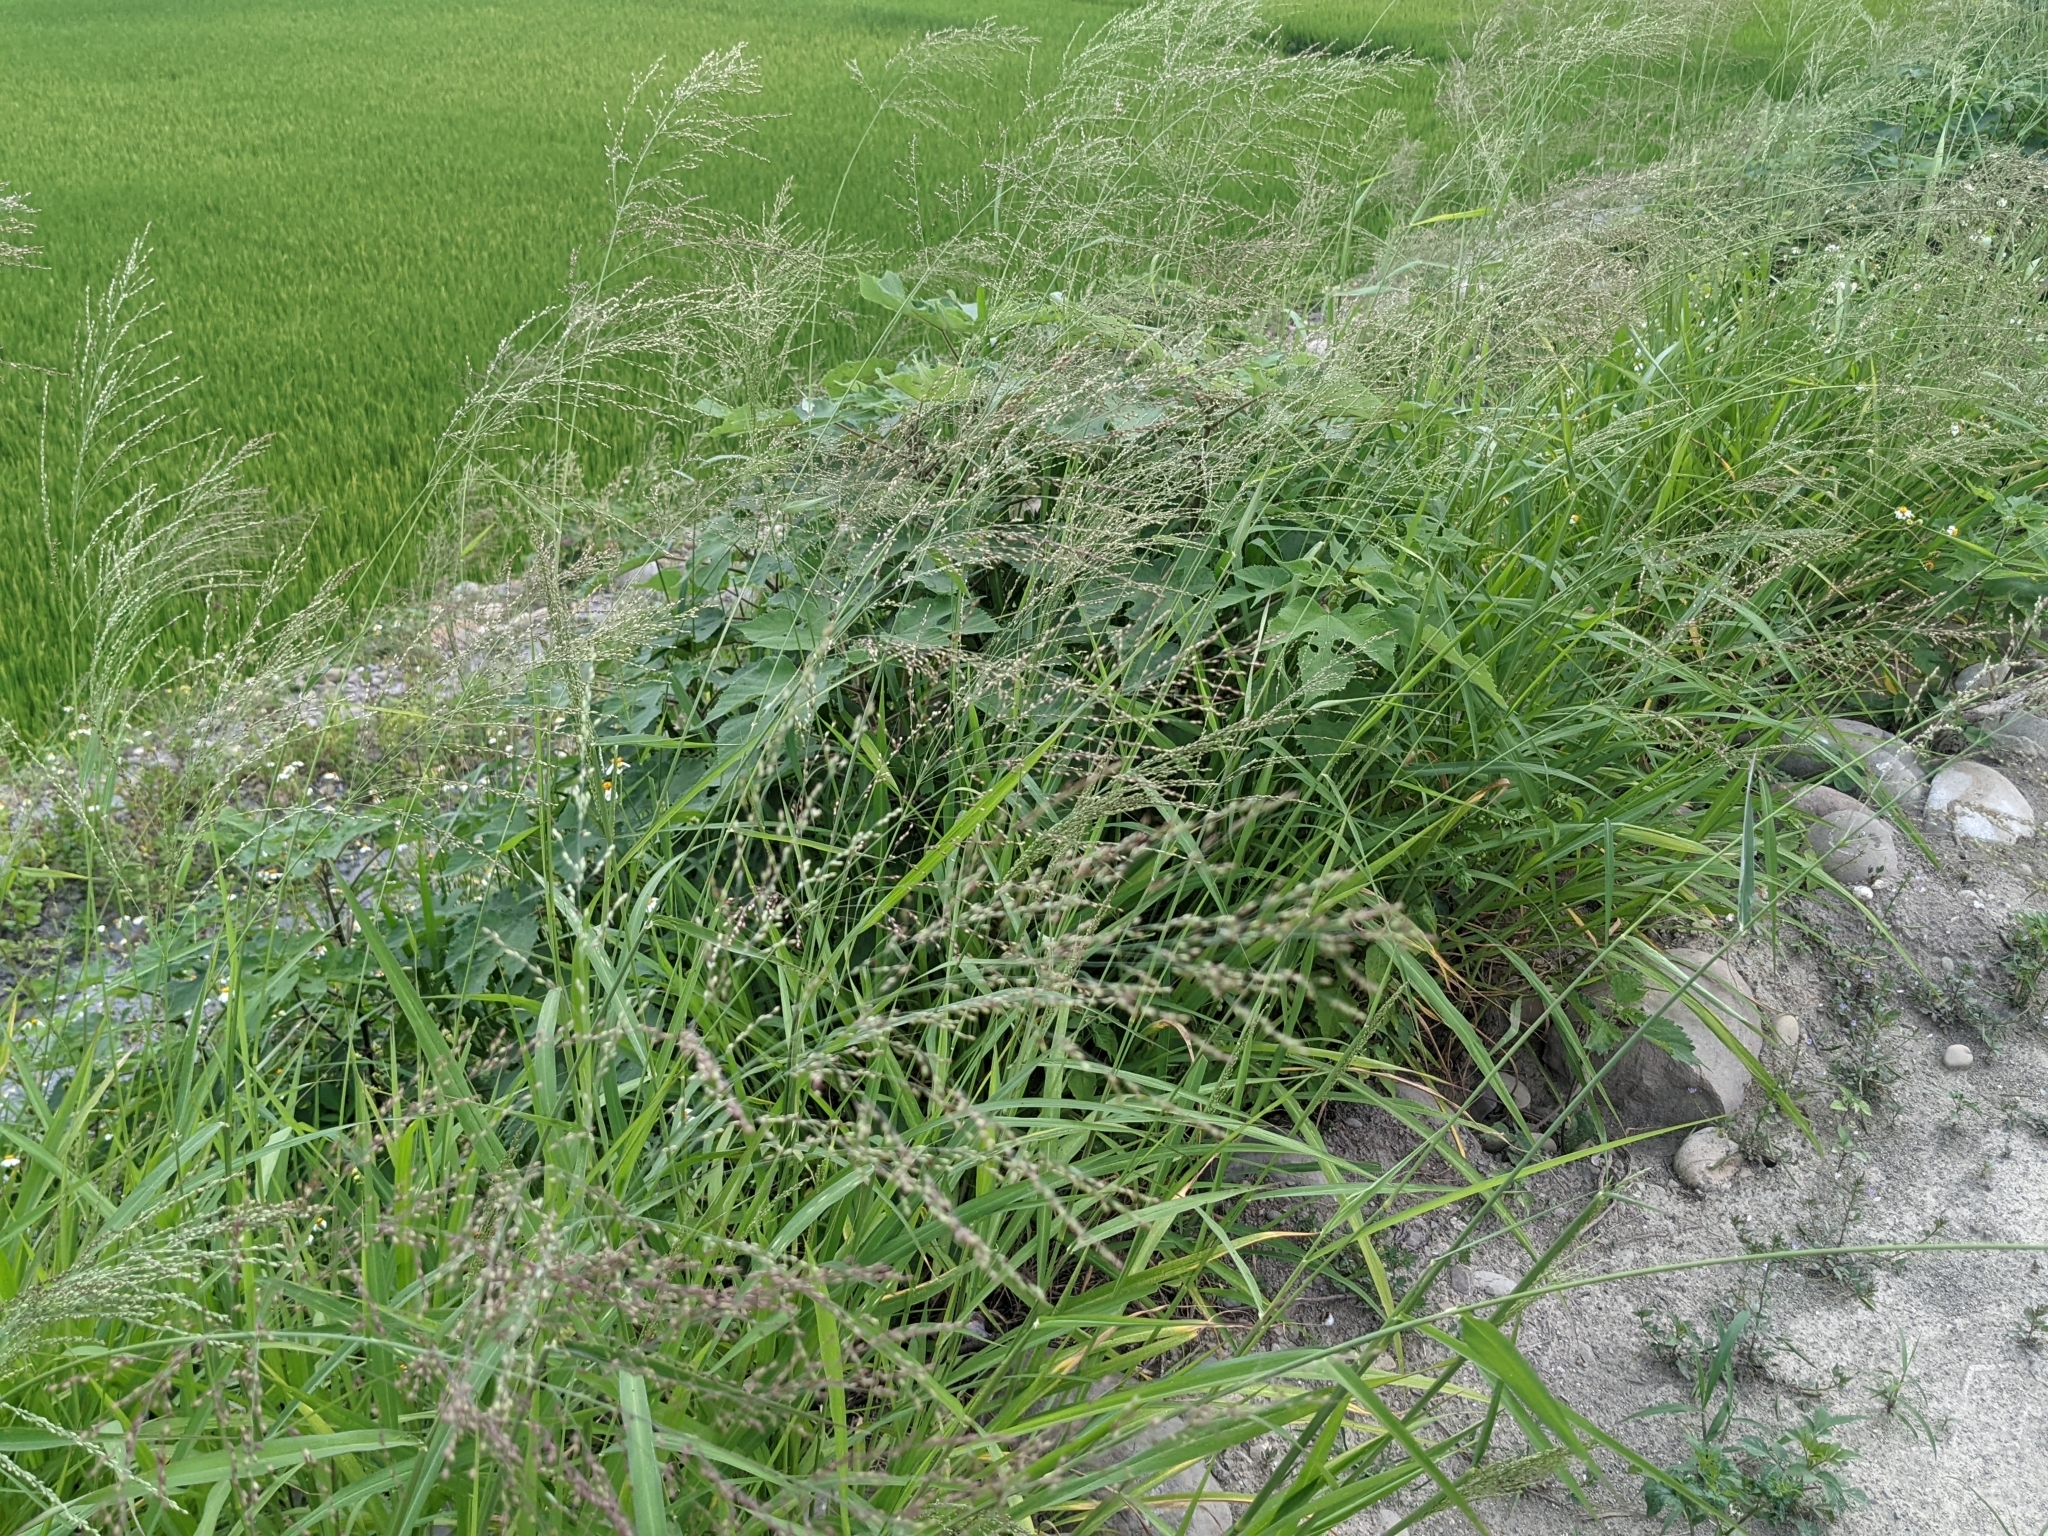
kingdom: Plantae
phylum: Tracheophyta
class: Liliopsida
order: Poales
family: Poaceae
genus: Megathyrsus
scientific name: Megathyrsus maximus
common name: Guineagrass
